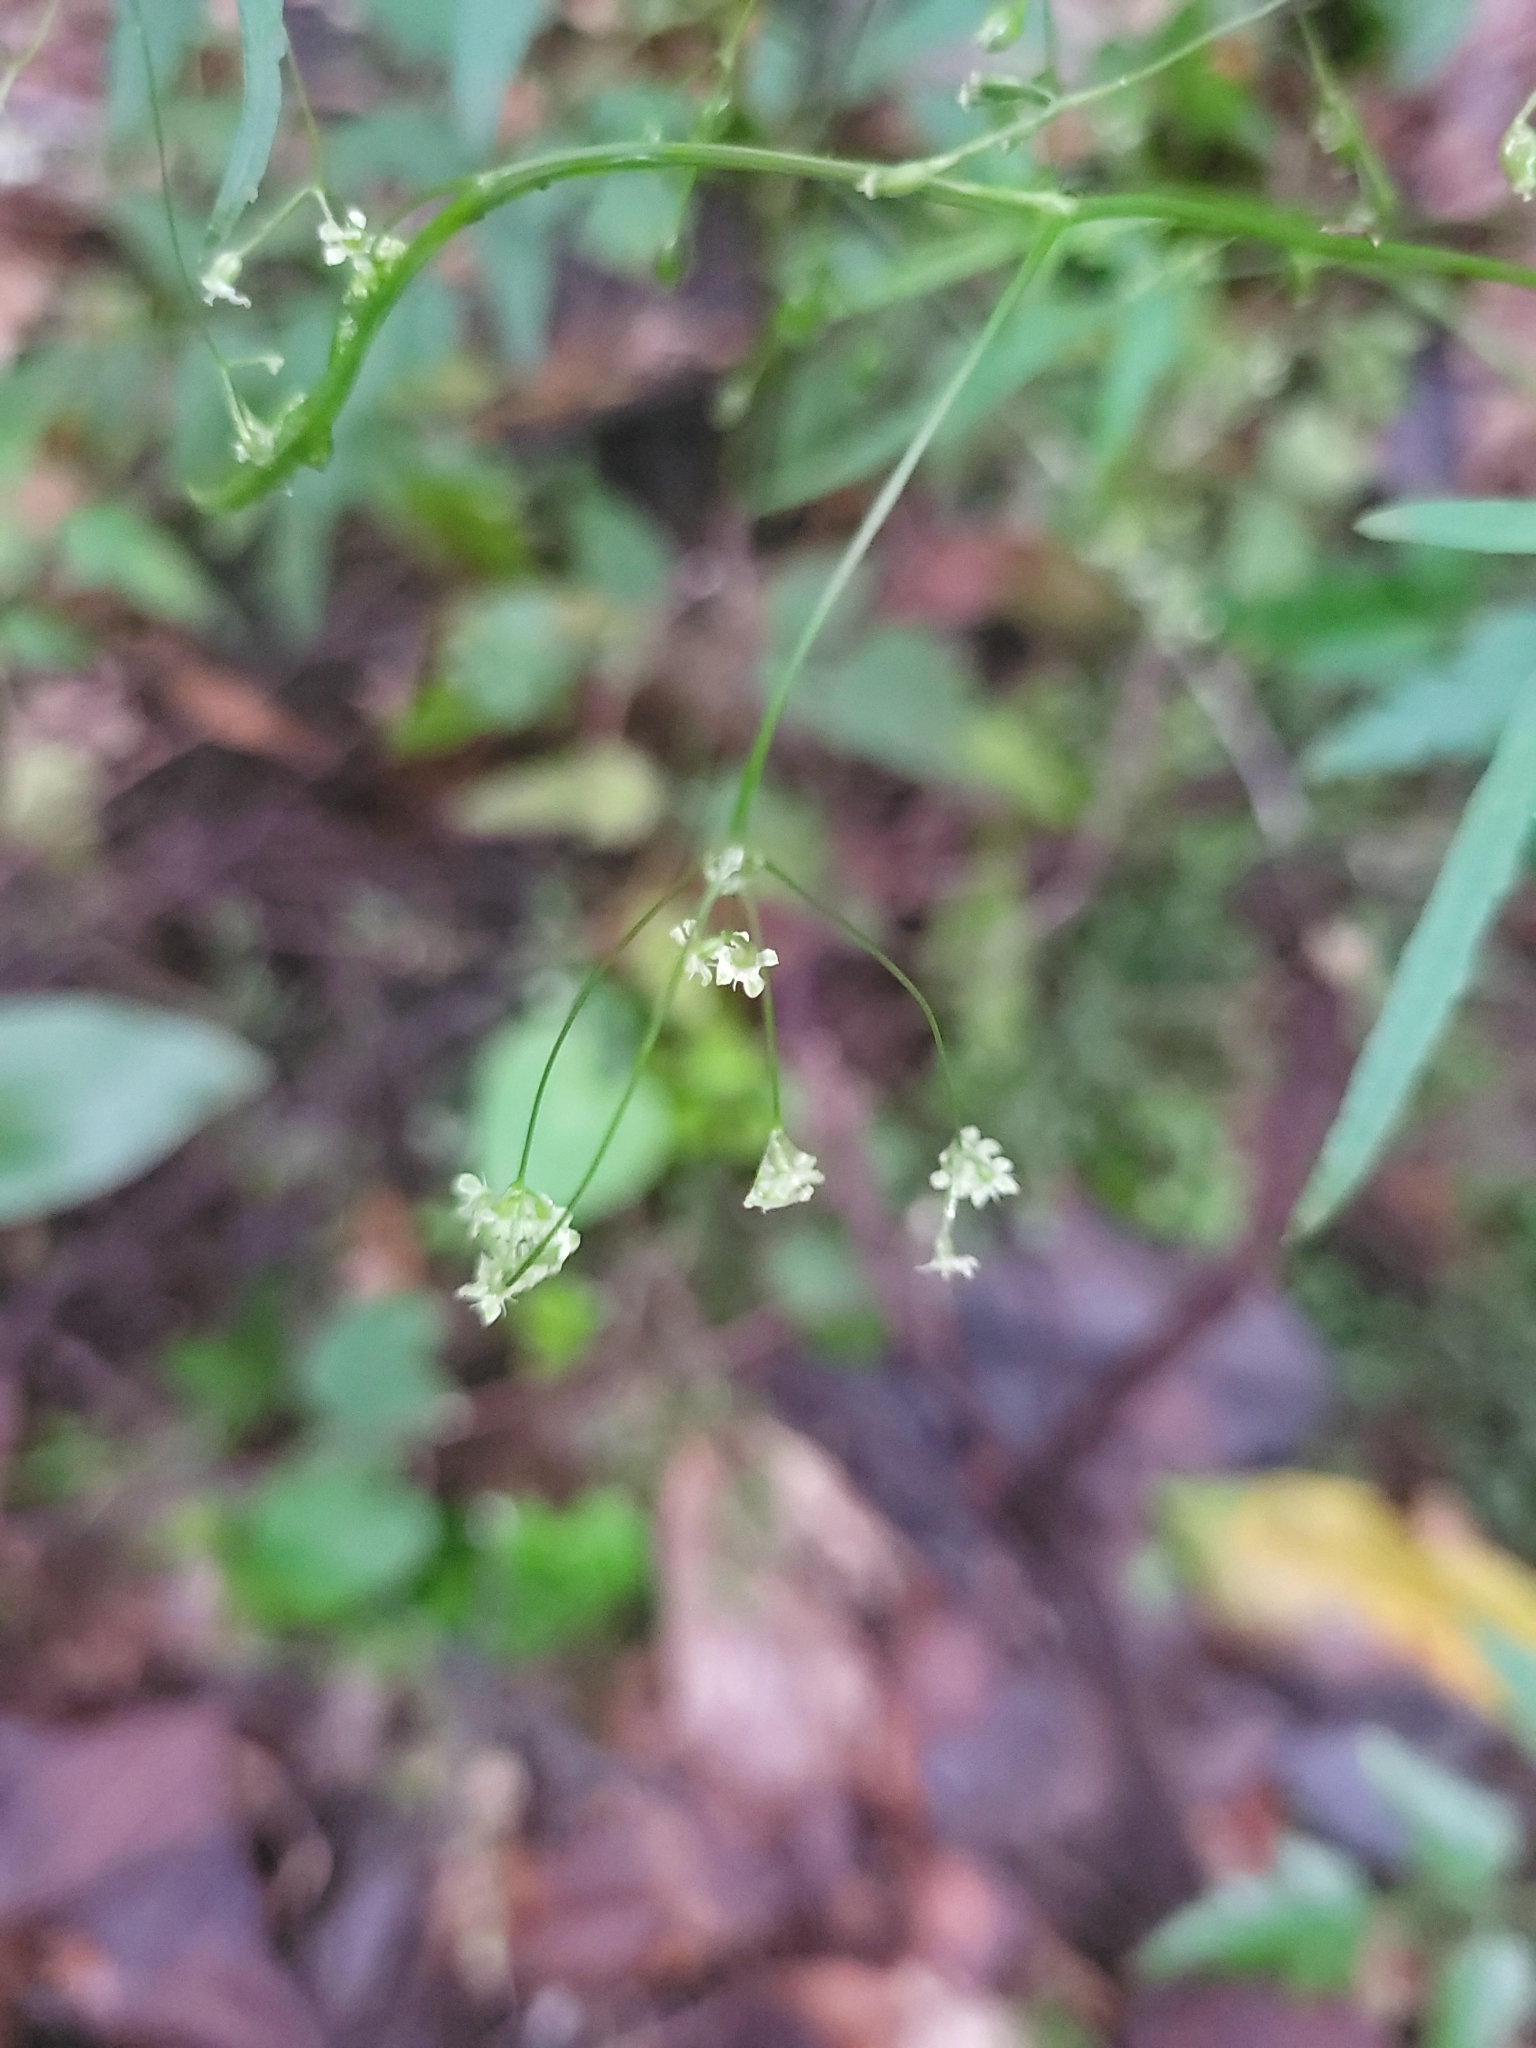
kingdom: Plantae
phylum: Tracheophyta
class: Magnoliopsida
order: Apiales
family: Apiaceae
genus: Daucus
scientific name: Daucus elegans
